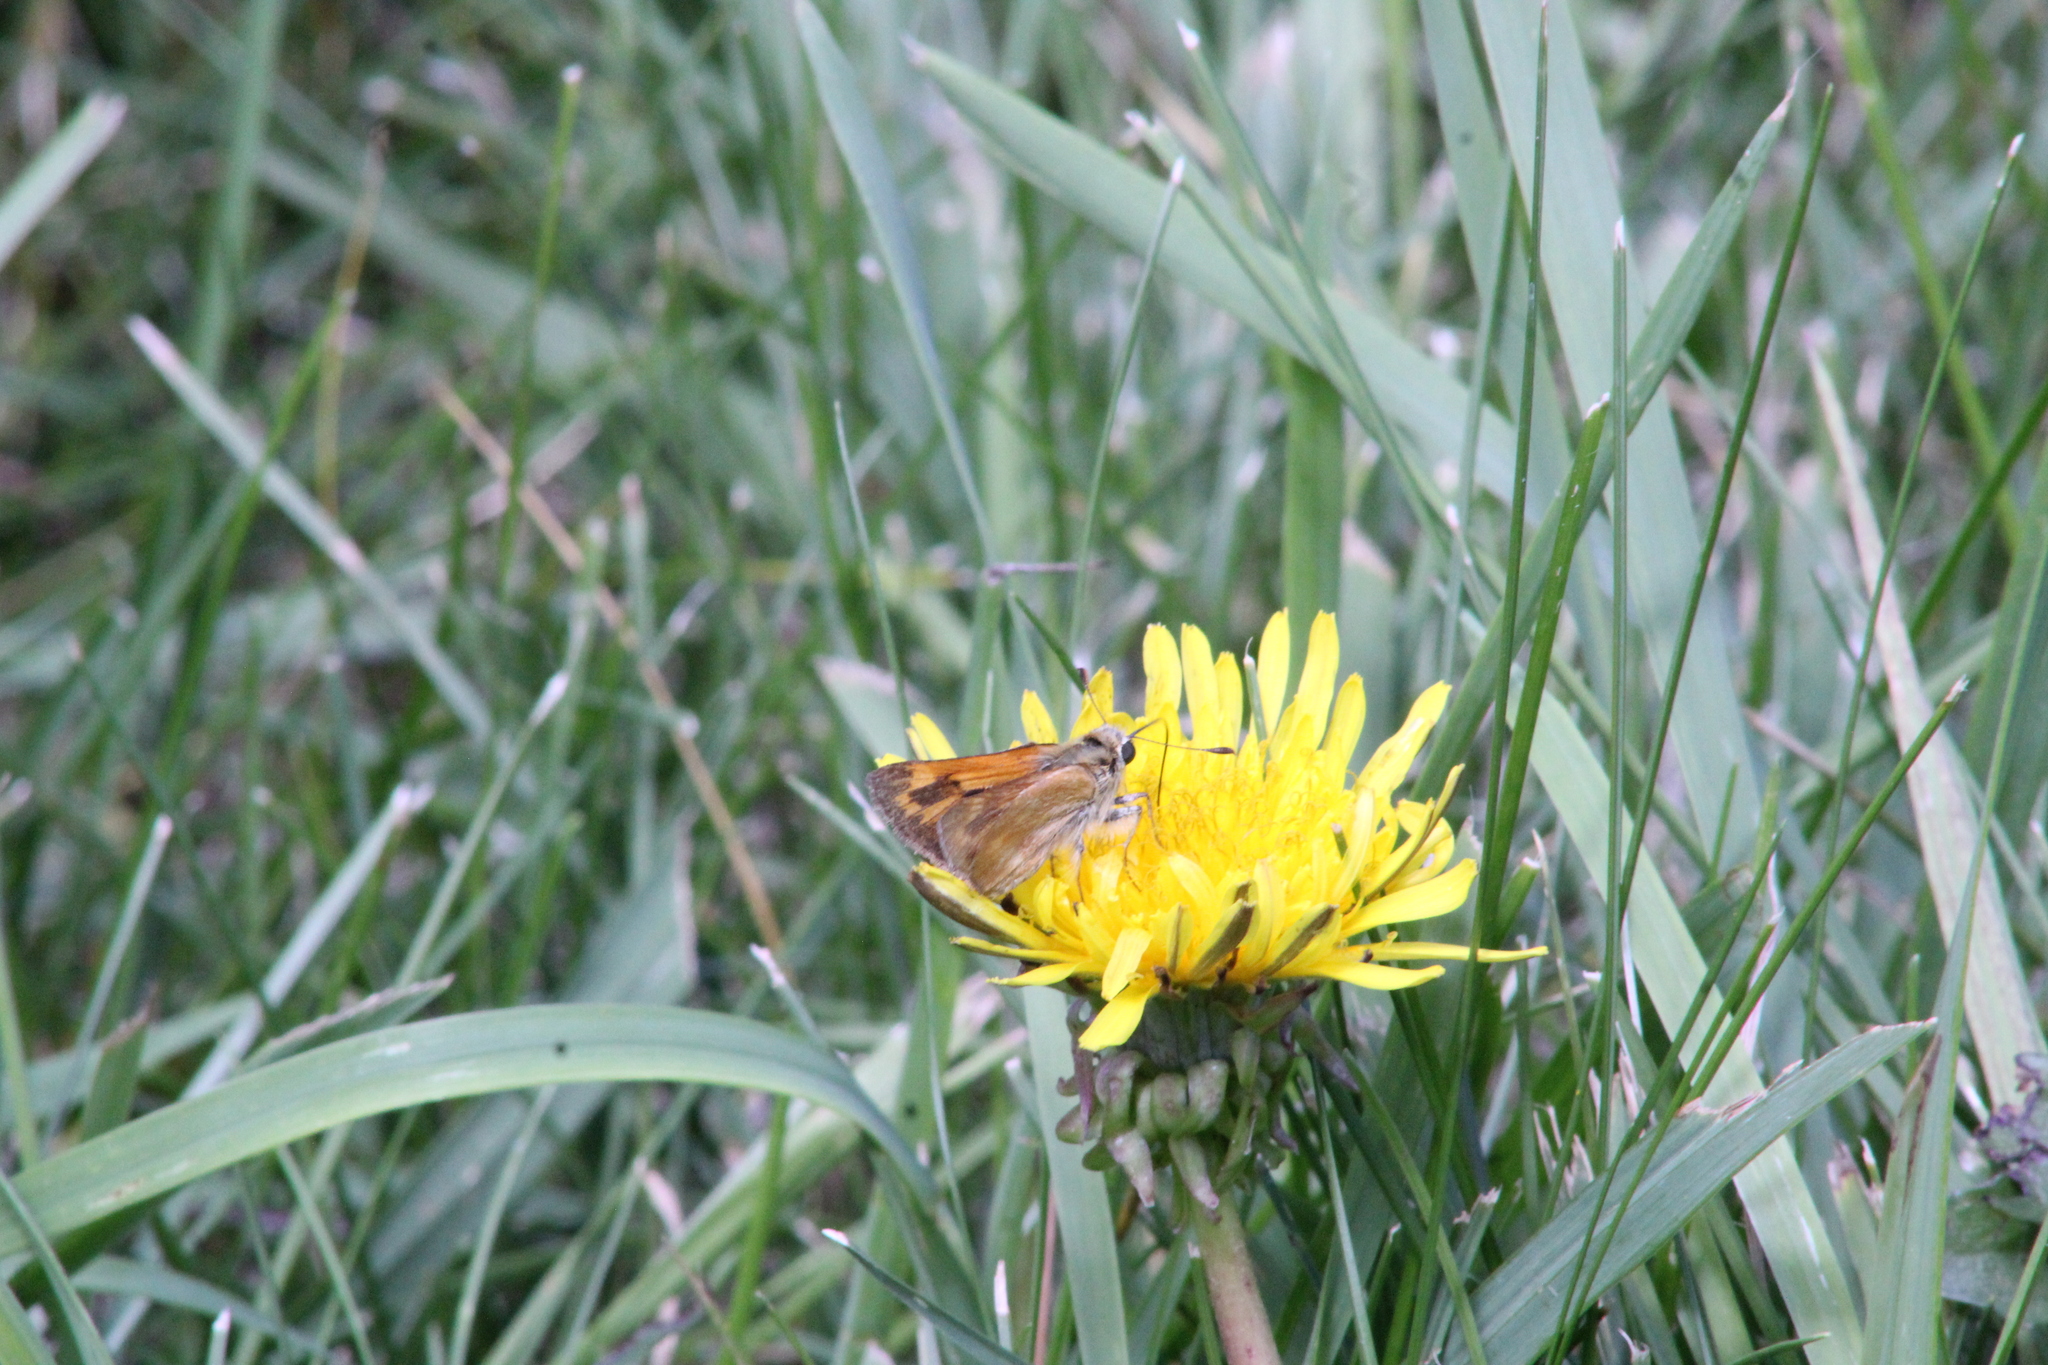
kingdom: Animalia
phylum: Arthropoda
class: Insecta
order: Lepidoptera
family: Hesperiidae
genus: Ochlodes
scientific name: Ochlodes sylvanoides
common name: Woodland skipper
